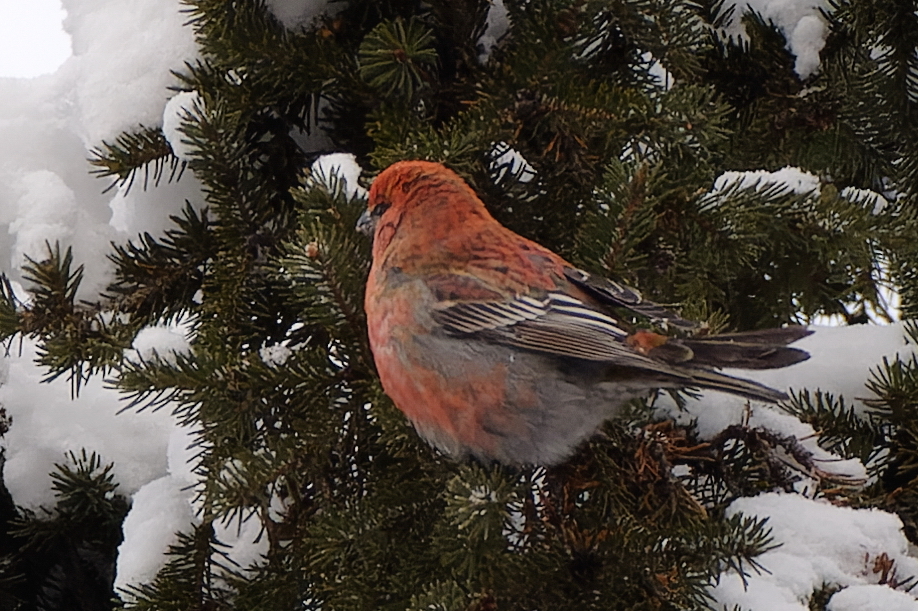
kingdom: Animalia
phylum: Chordata
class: Aves
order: Passeriformes
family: Fringillidae
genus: Pinicola
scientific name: Pinicola enucleator
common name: Pine grosbeak
